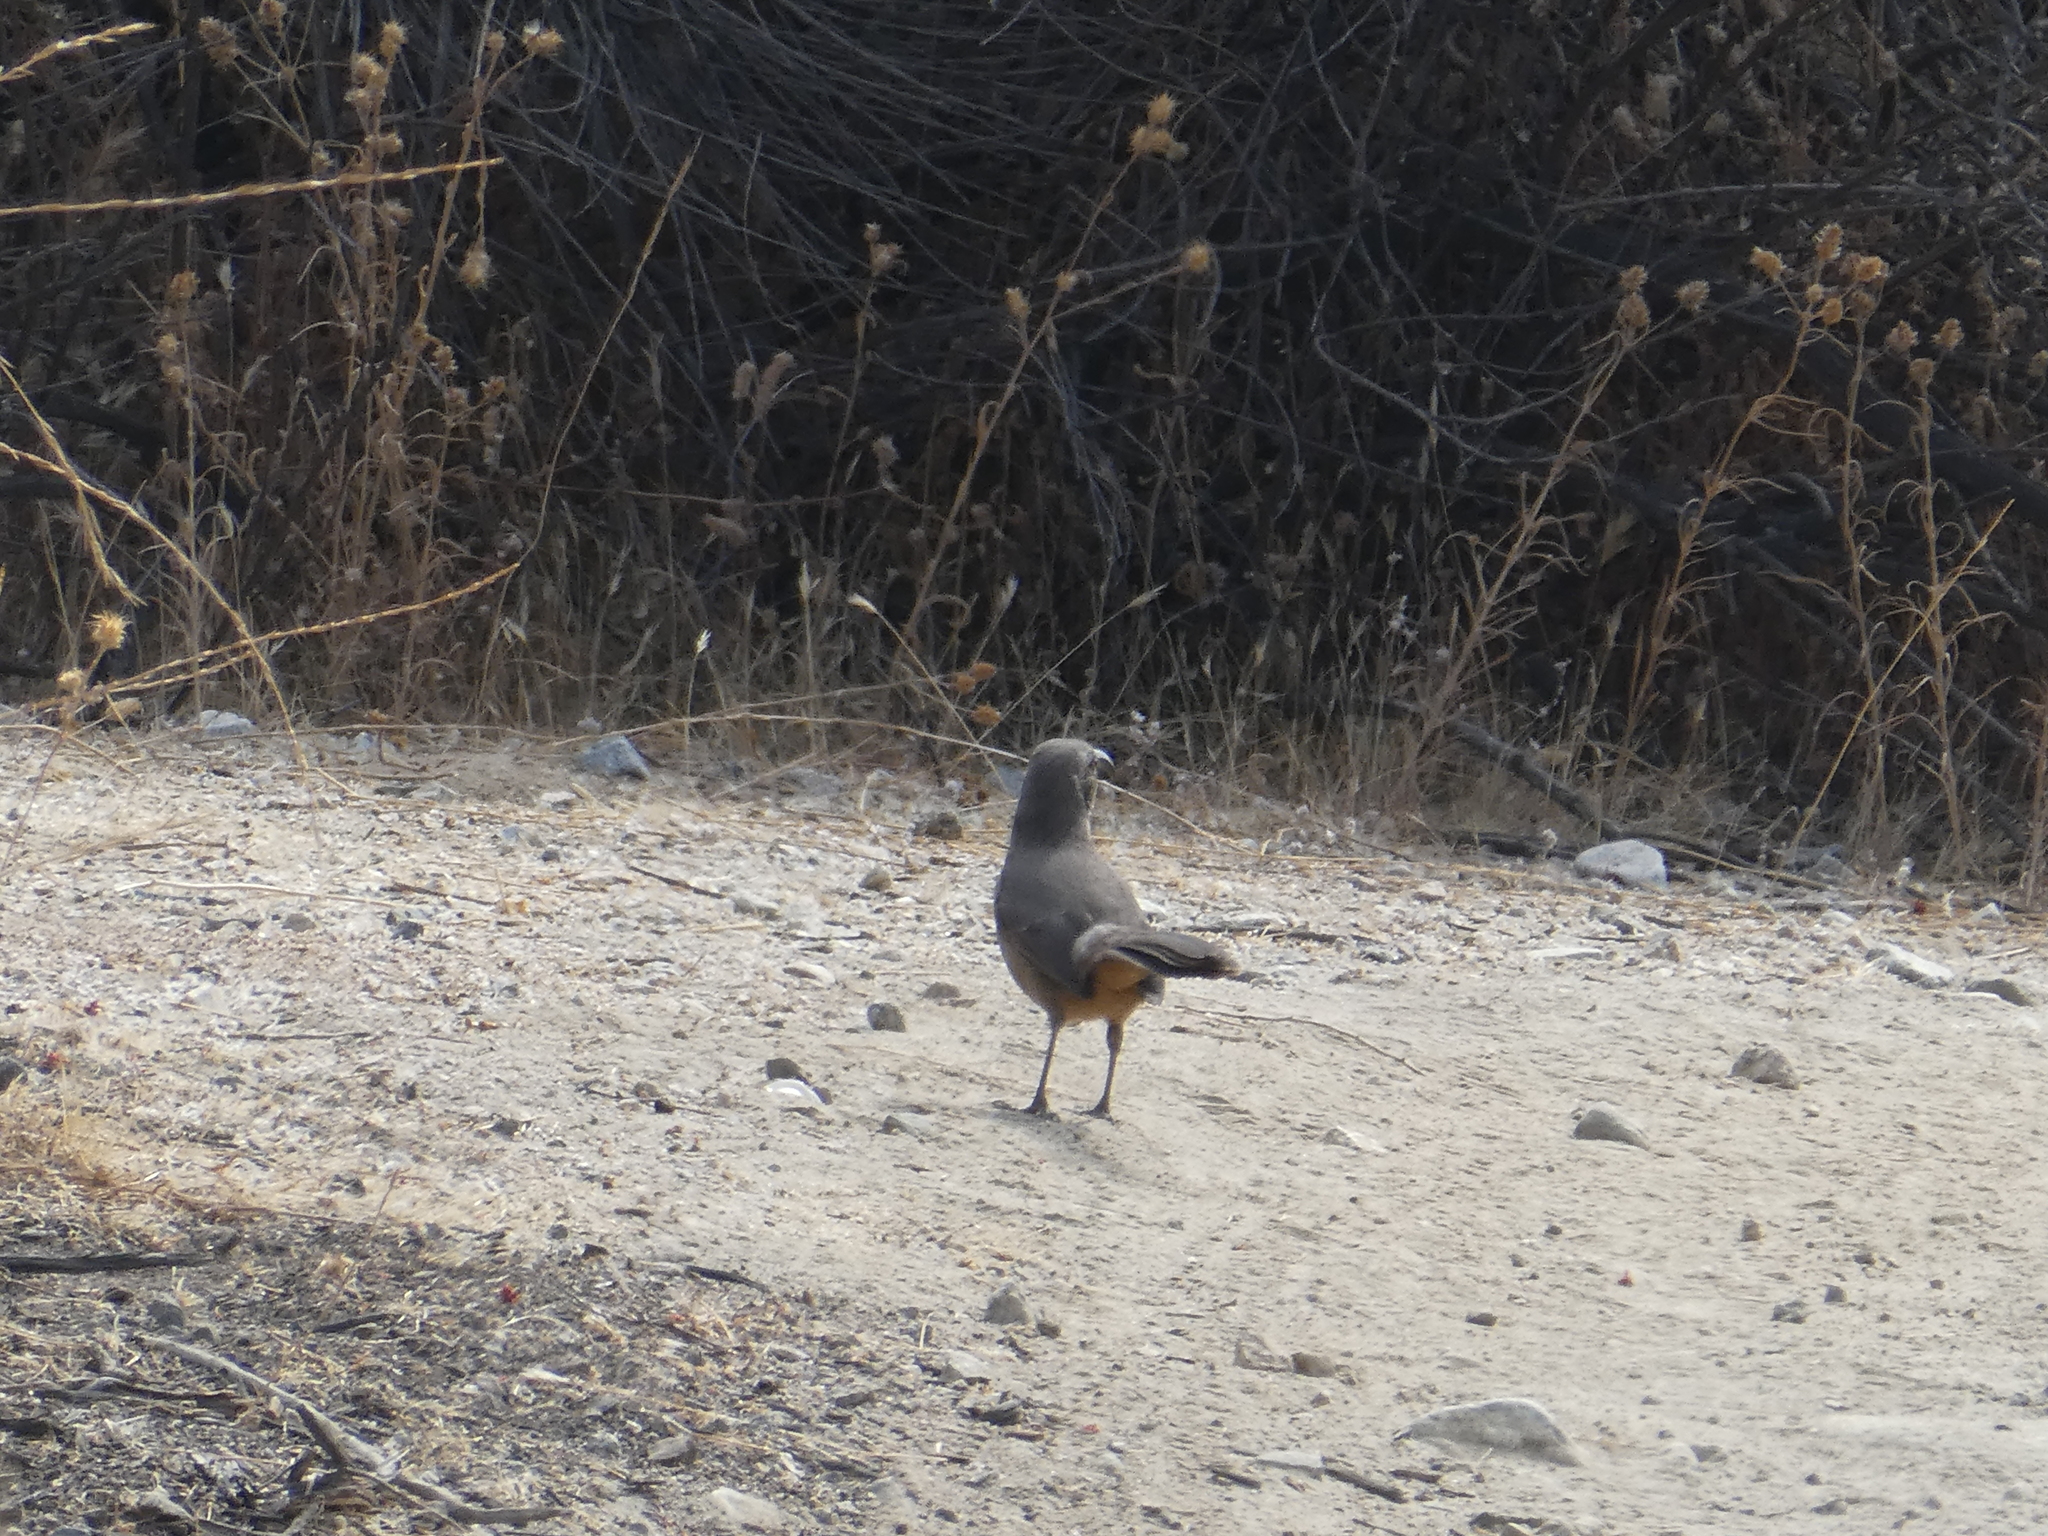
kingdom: Animalia
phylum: Chordata
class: Aves
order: Passeriformes
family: Mimidae
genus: Toxostoma
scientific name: Toxostoma redivivum
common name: California thrasher
